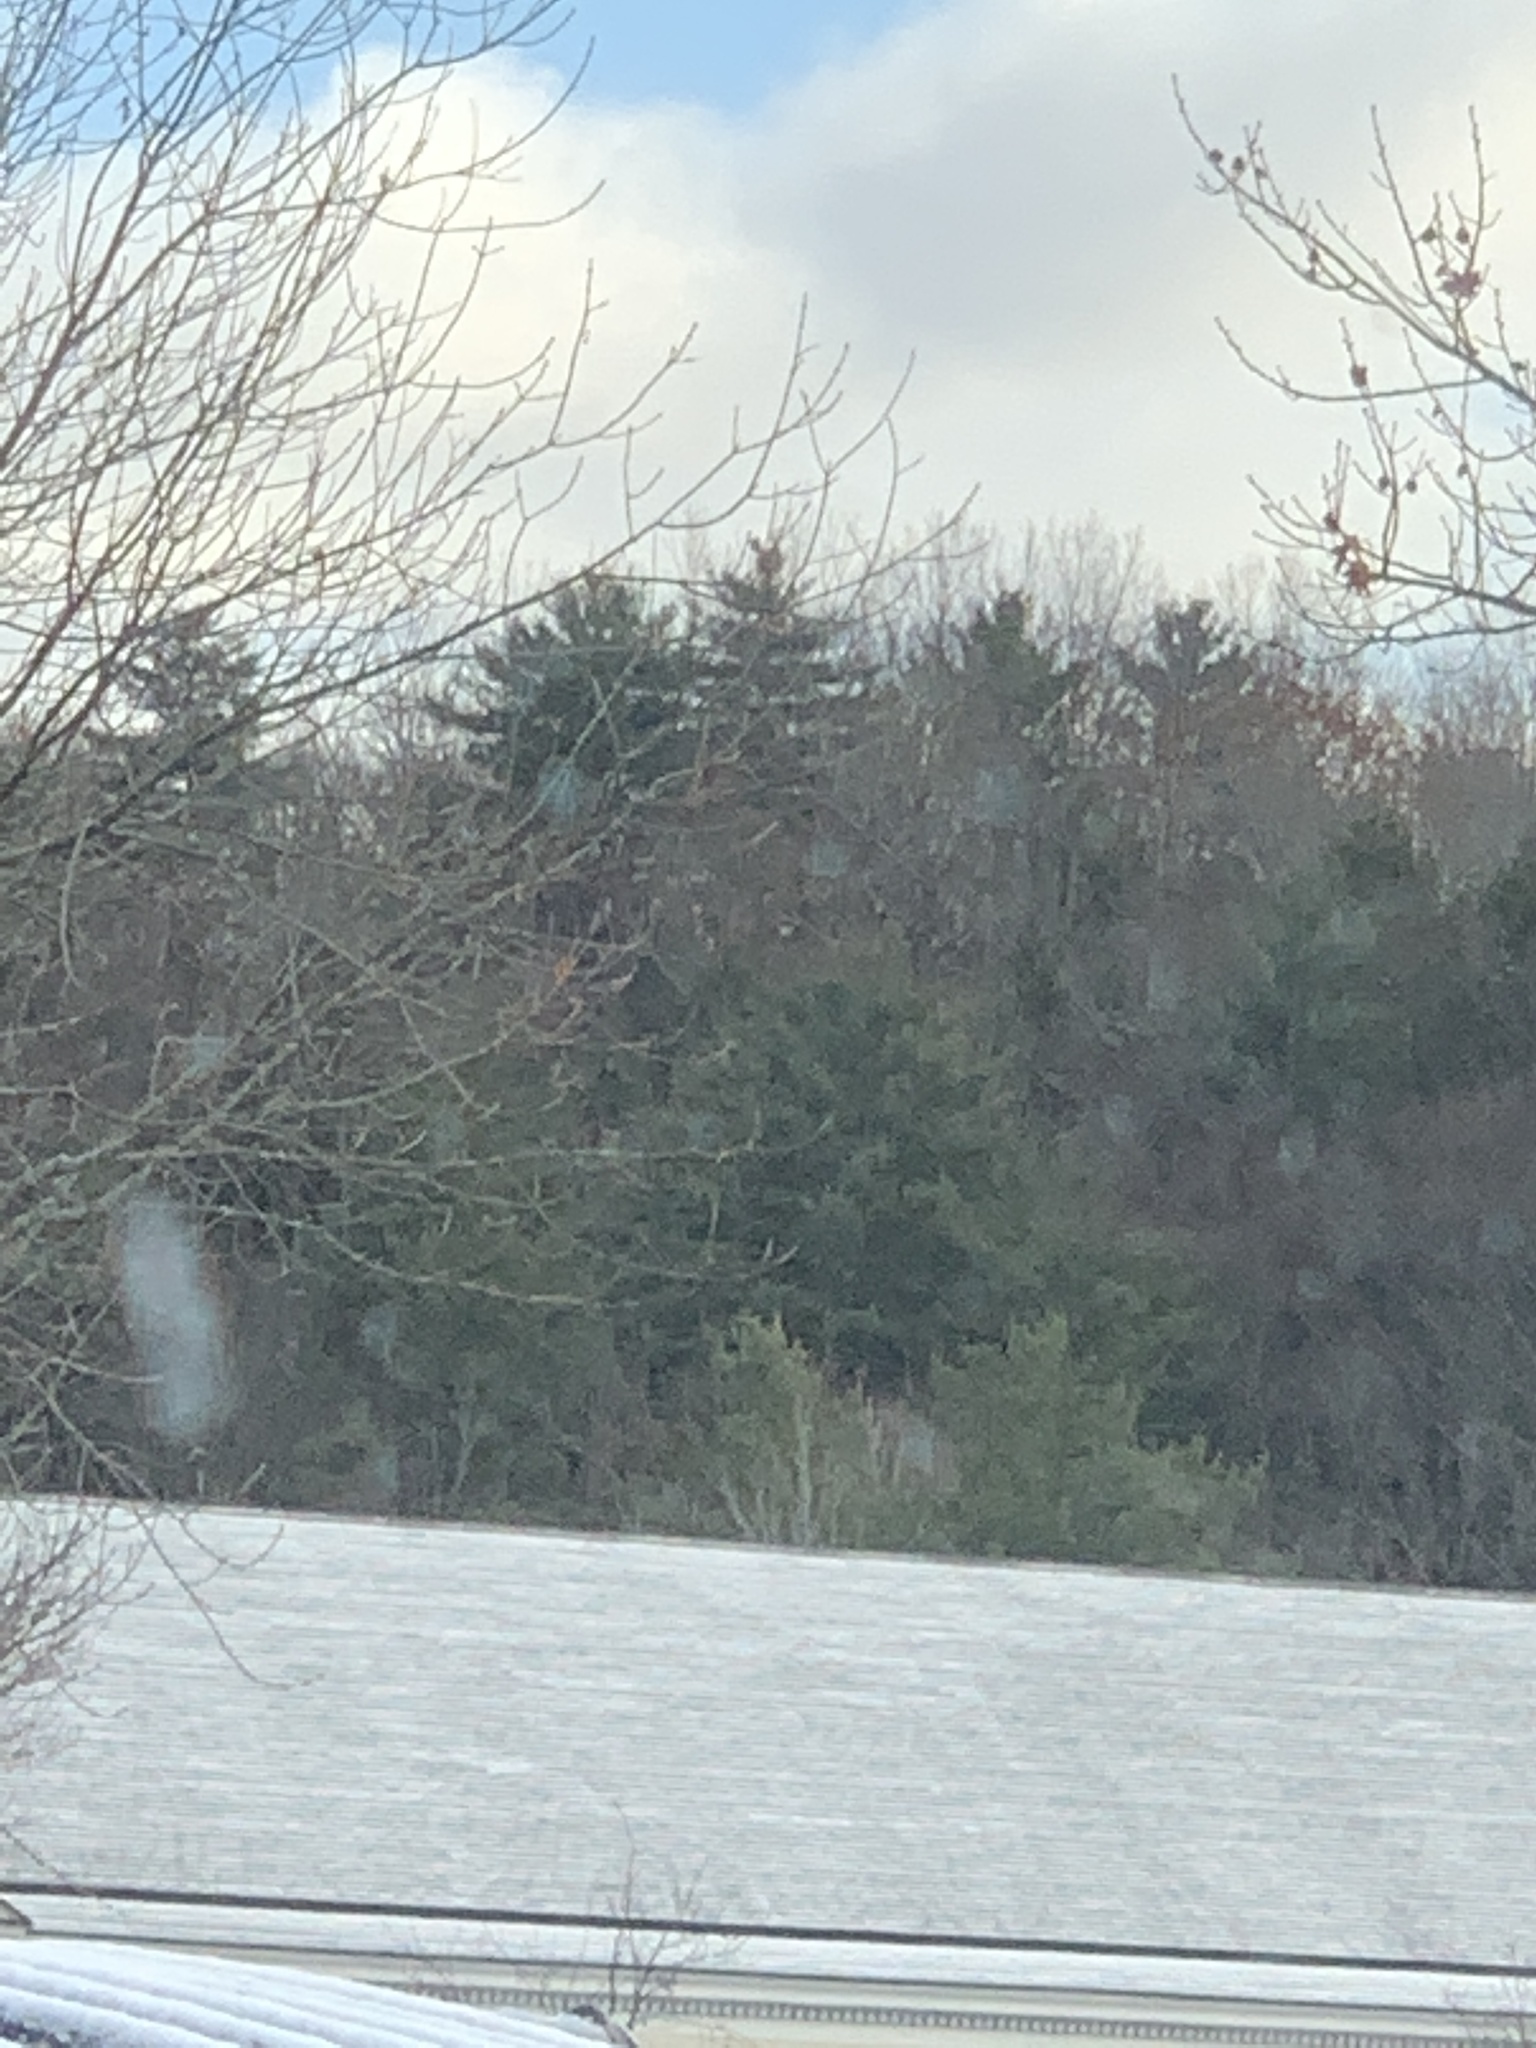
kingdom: Plantae
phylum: Tracheophyta
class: Pinopsida
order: Pinales
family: Pinaceae
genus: Pinus
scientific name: Pinus strobus
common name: Weymouth pine
